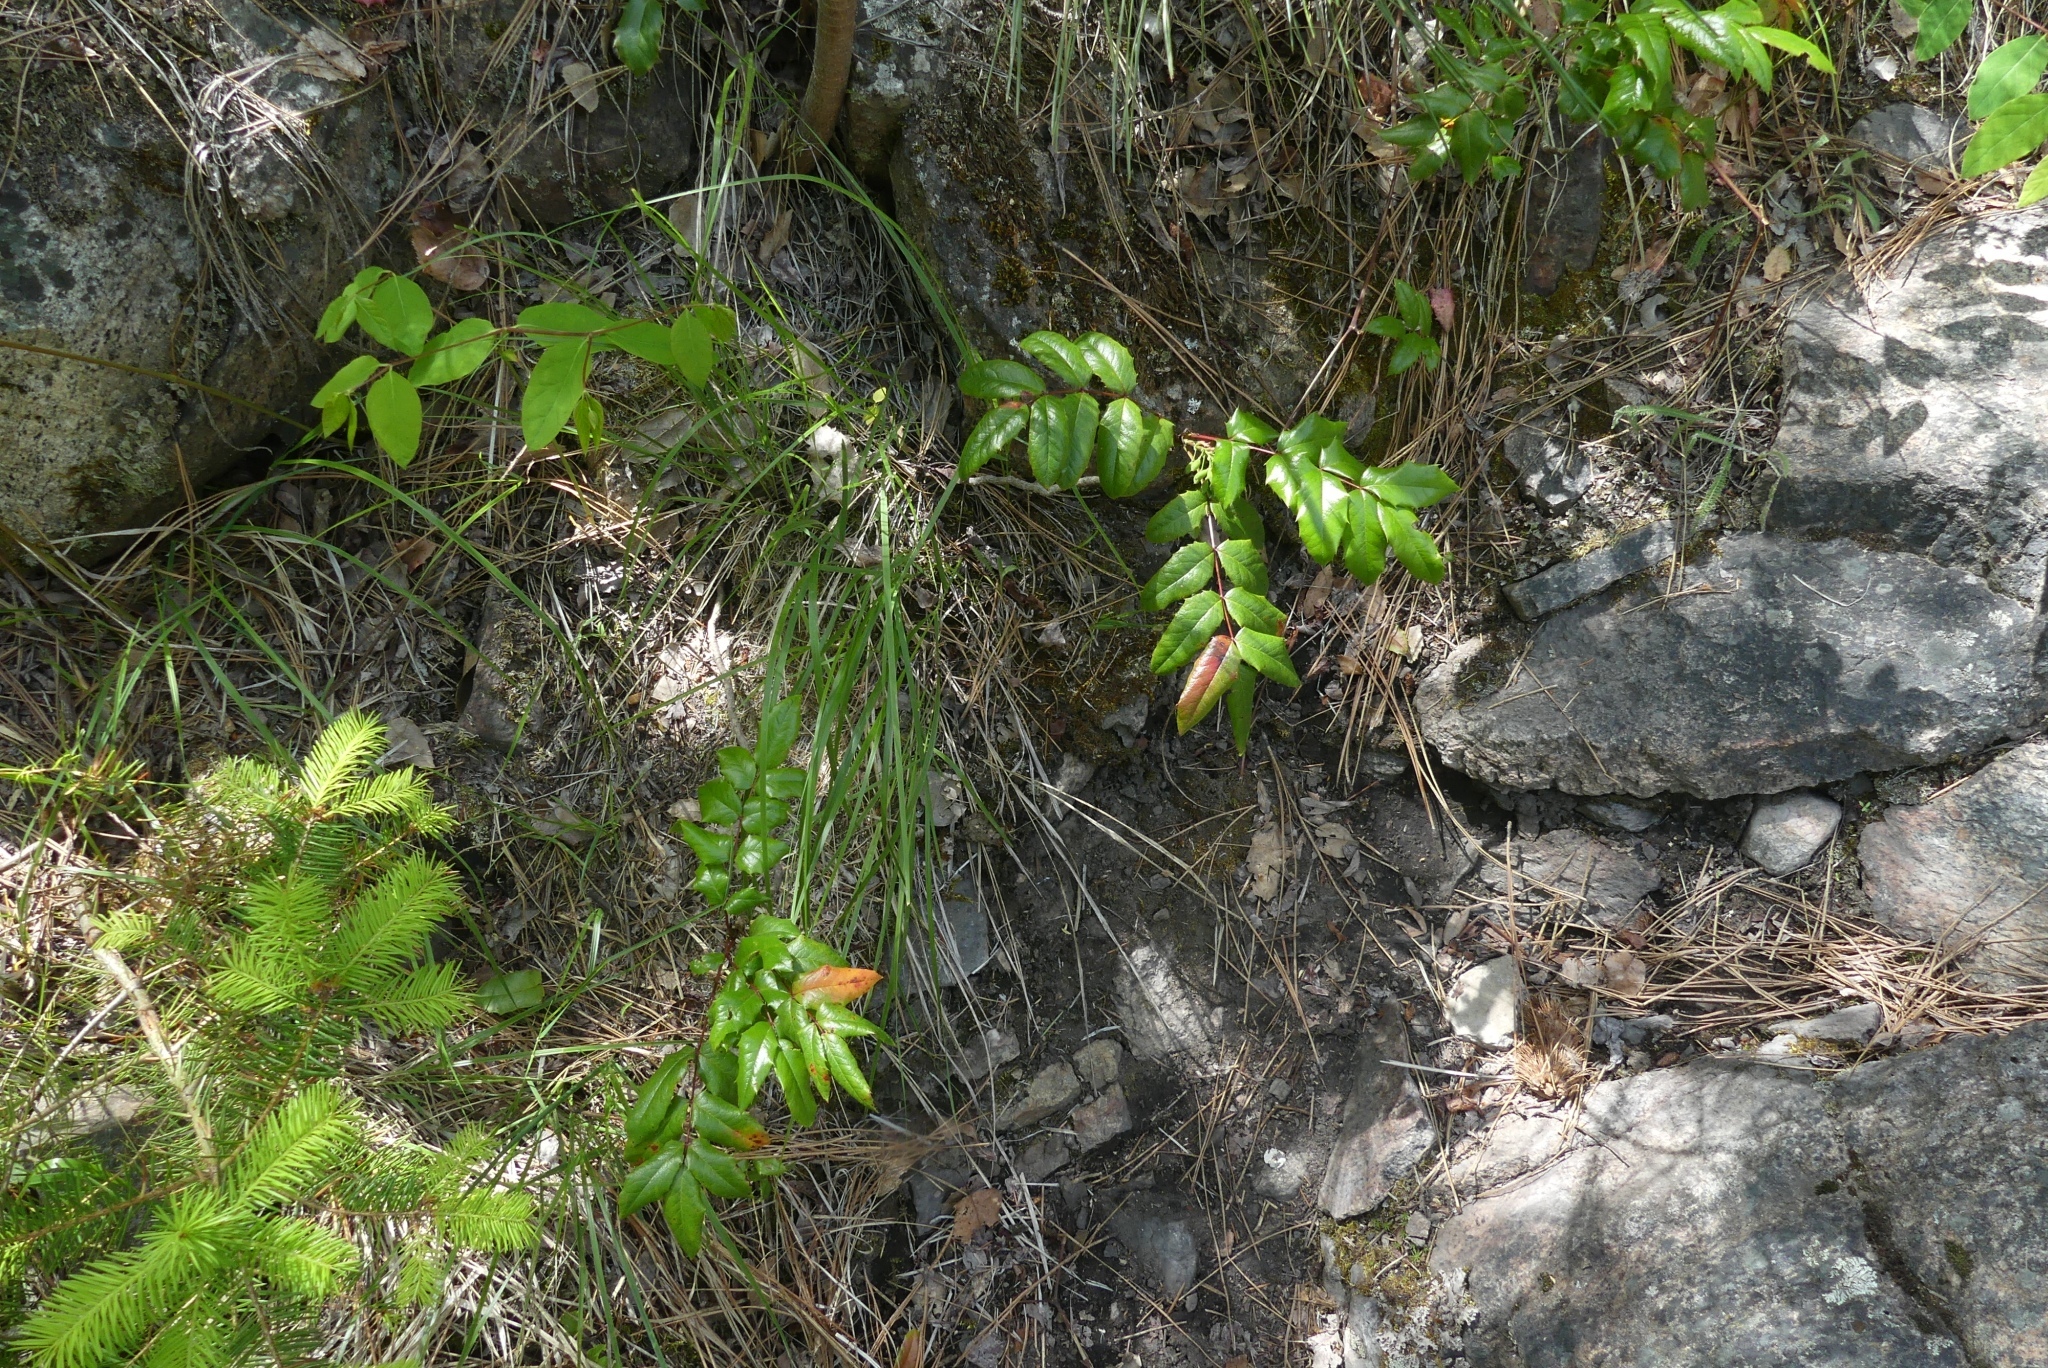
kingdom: Plantae
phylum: Tracheophyta
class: Magnoliopsida
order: Ranunculales
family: Berberidaceae
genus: Mahonia
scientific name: Mahonia aquifolium
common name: Oregon-grape
